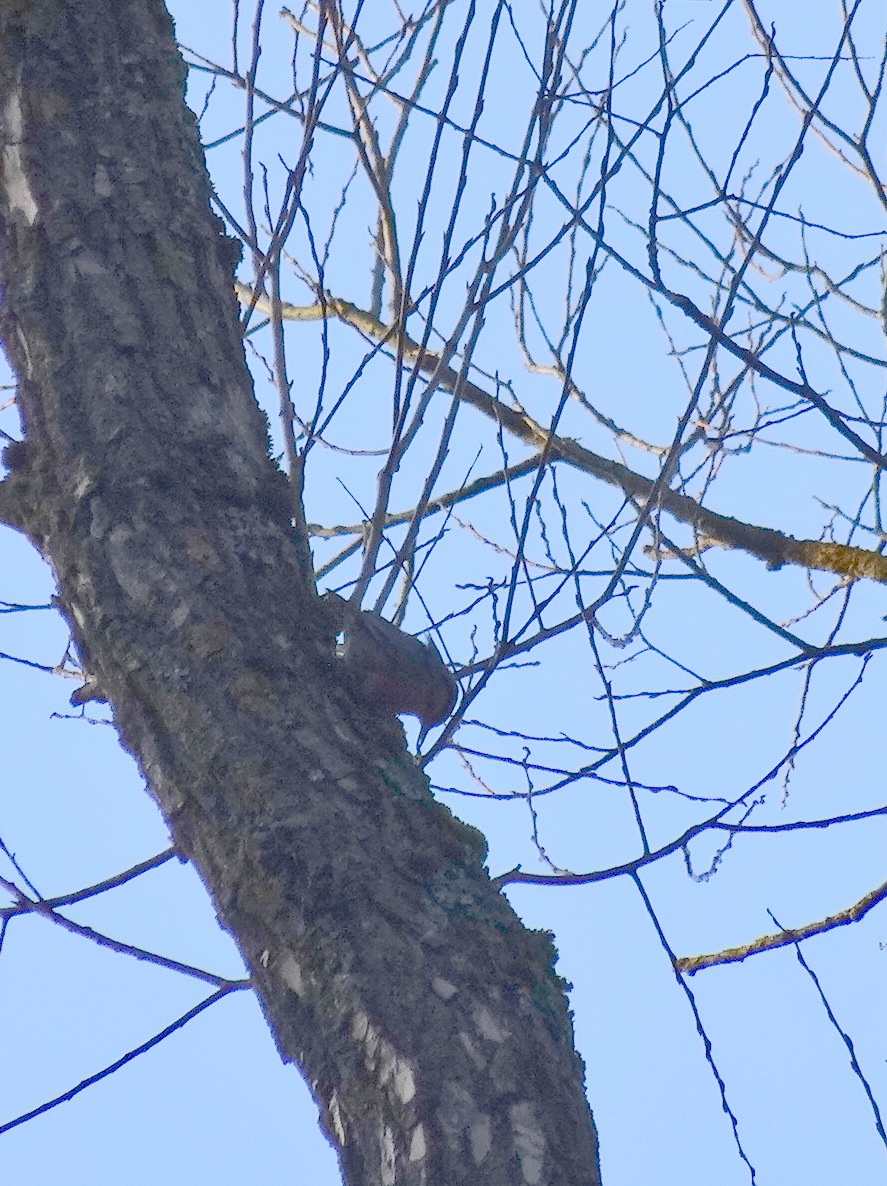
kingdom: Animalia
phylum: Chordata
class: Aves
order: Passeriformes
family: Sittidae
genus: Sitta
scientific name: Sitta europaea
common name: Eurasian nuthatch
